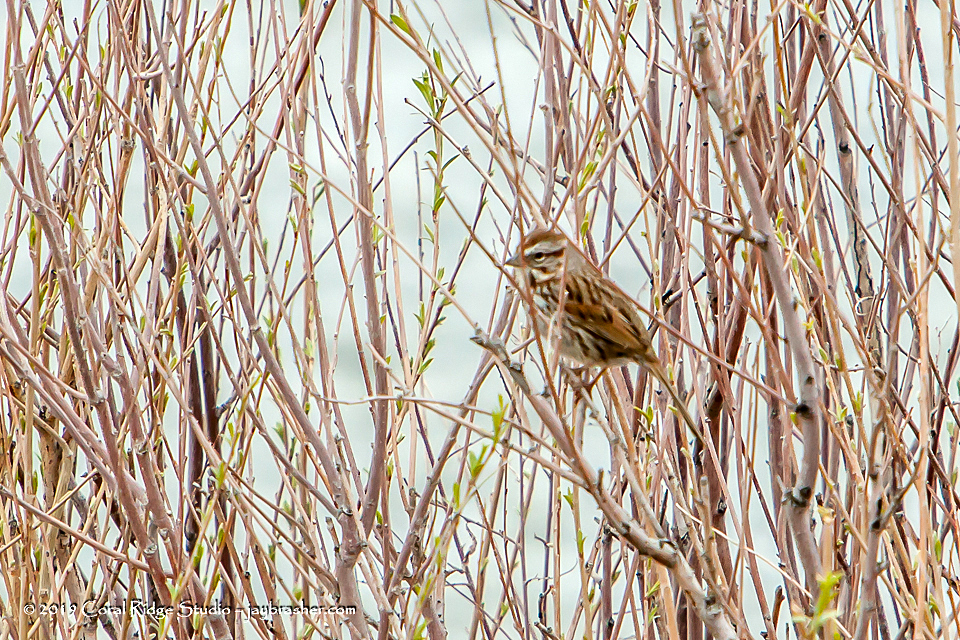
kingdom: Animalia
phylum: Chordata
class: Aves
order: Passeriformes
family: Passerellidae
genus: Melospiza
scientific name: Melospiza melodia
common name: Song sparrow
